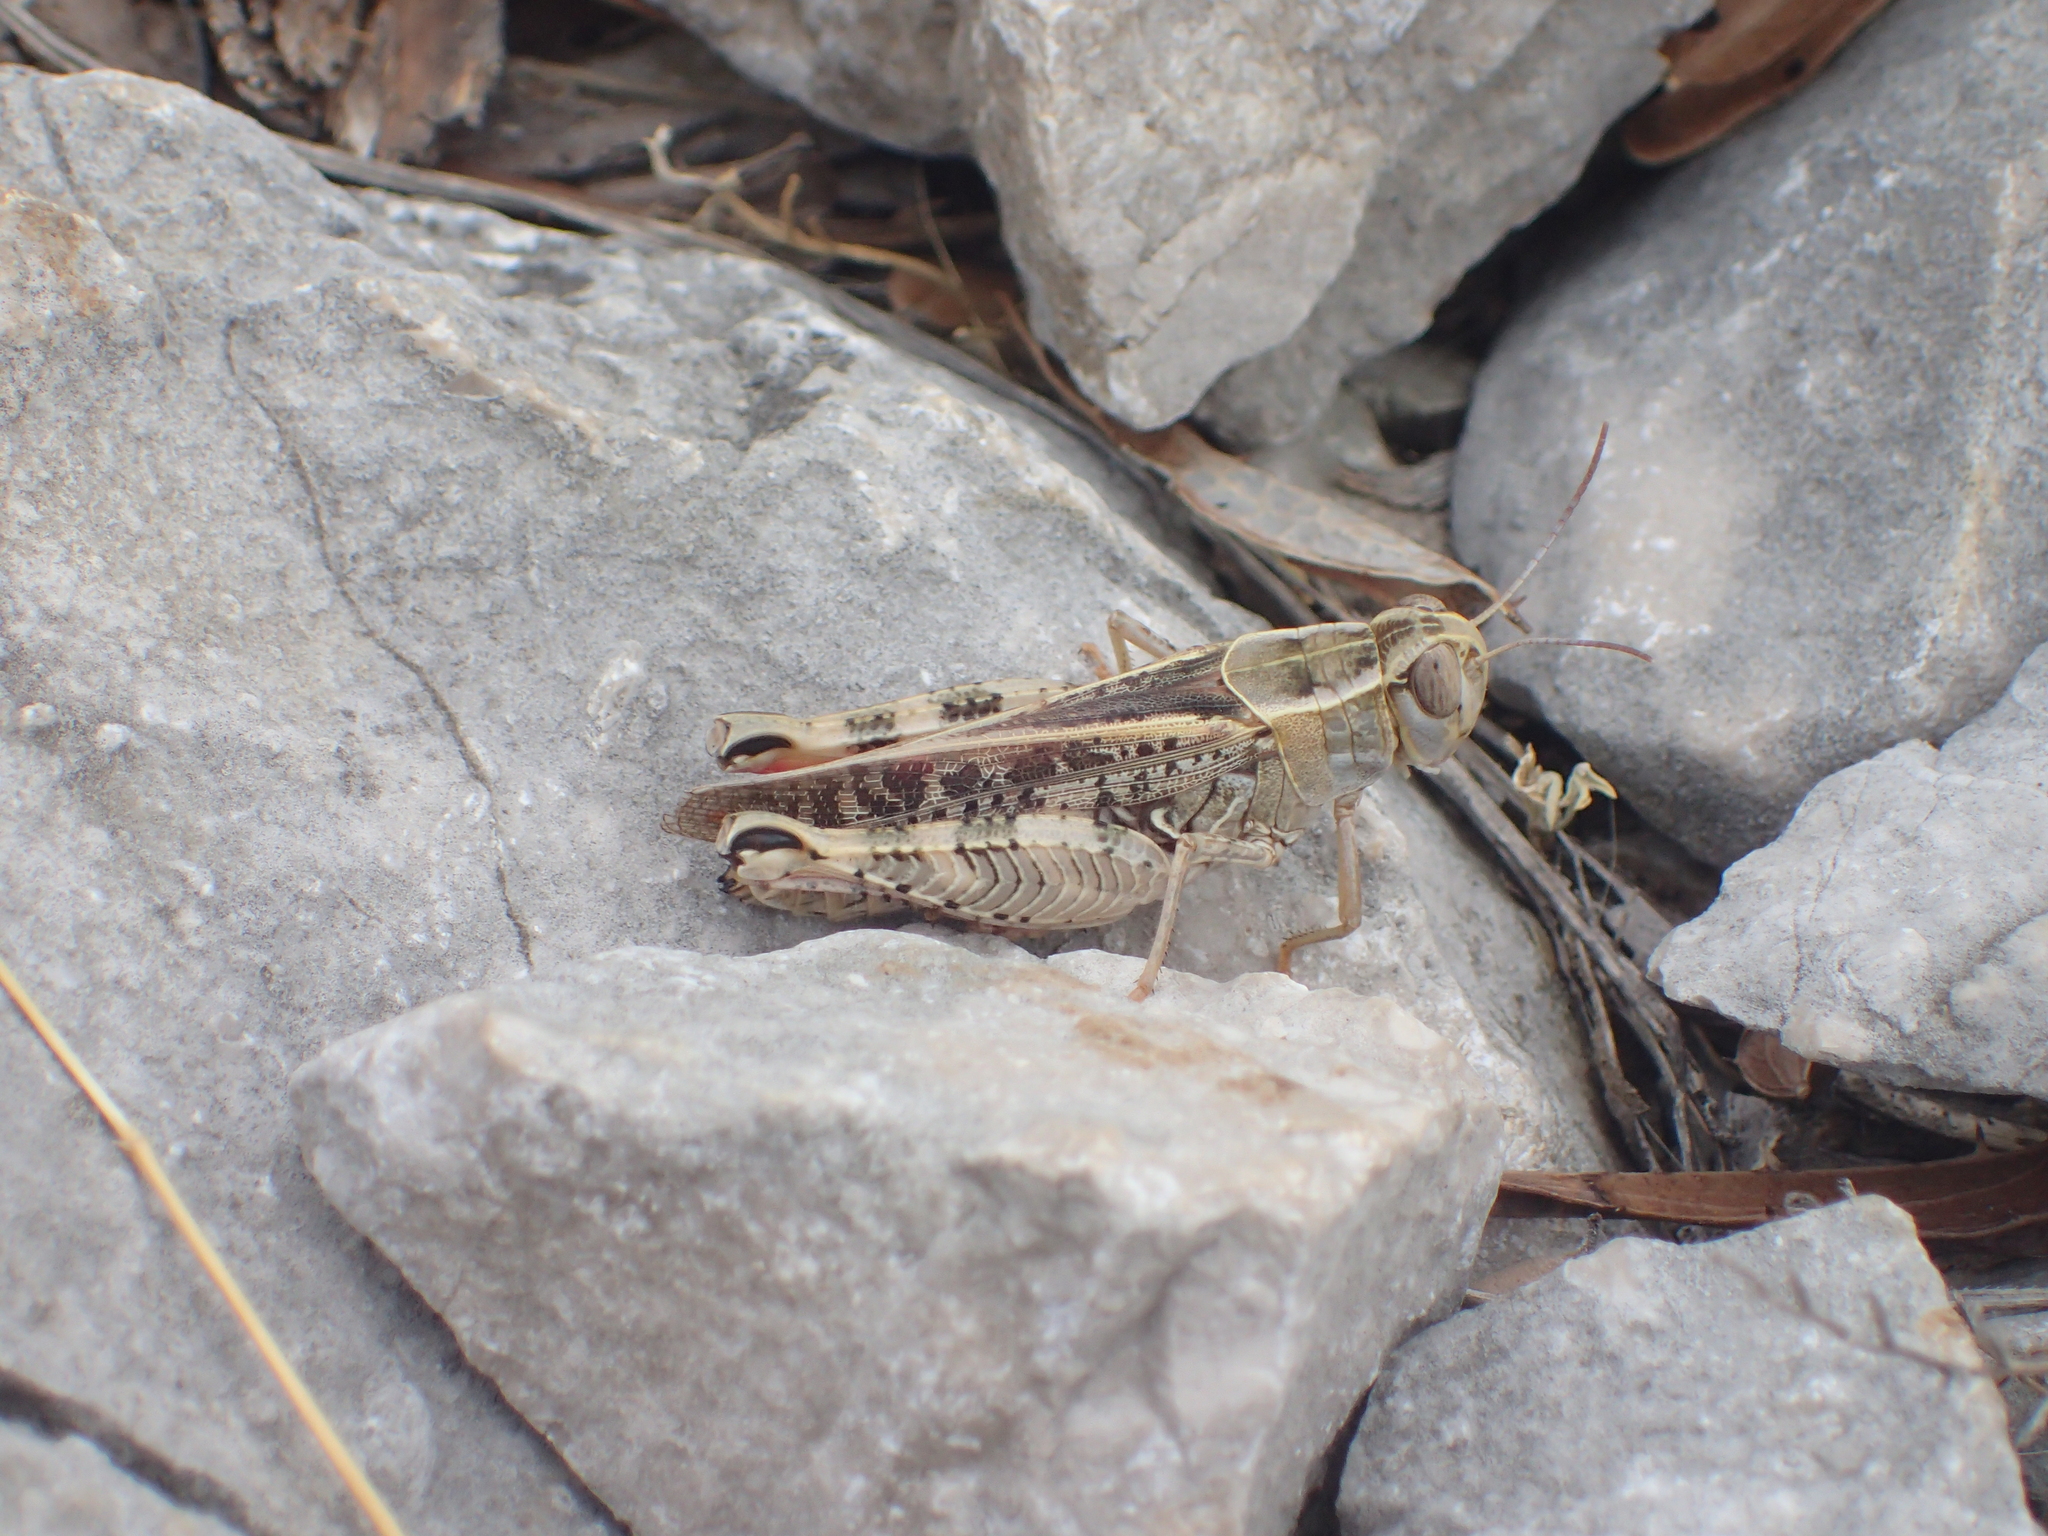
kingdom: Animalia
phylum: Arthropoda
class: Insecta
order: Orthoptera
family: Acrididae
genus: Calliptamus
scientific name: Calliptamus italicus
